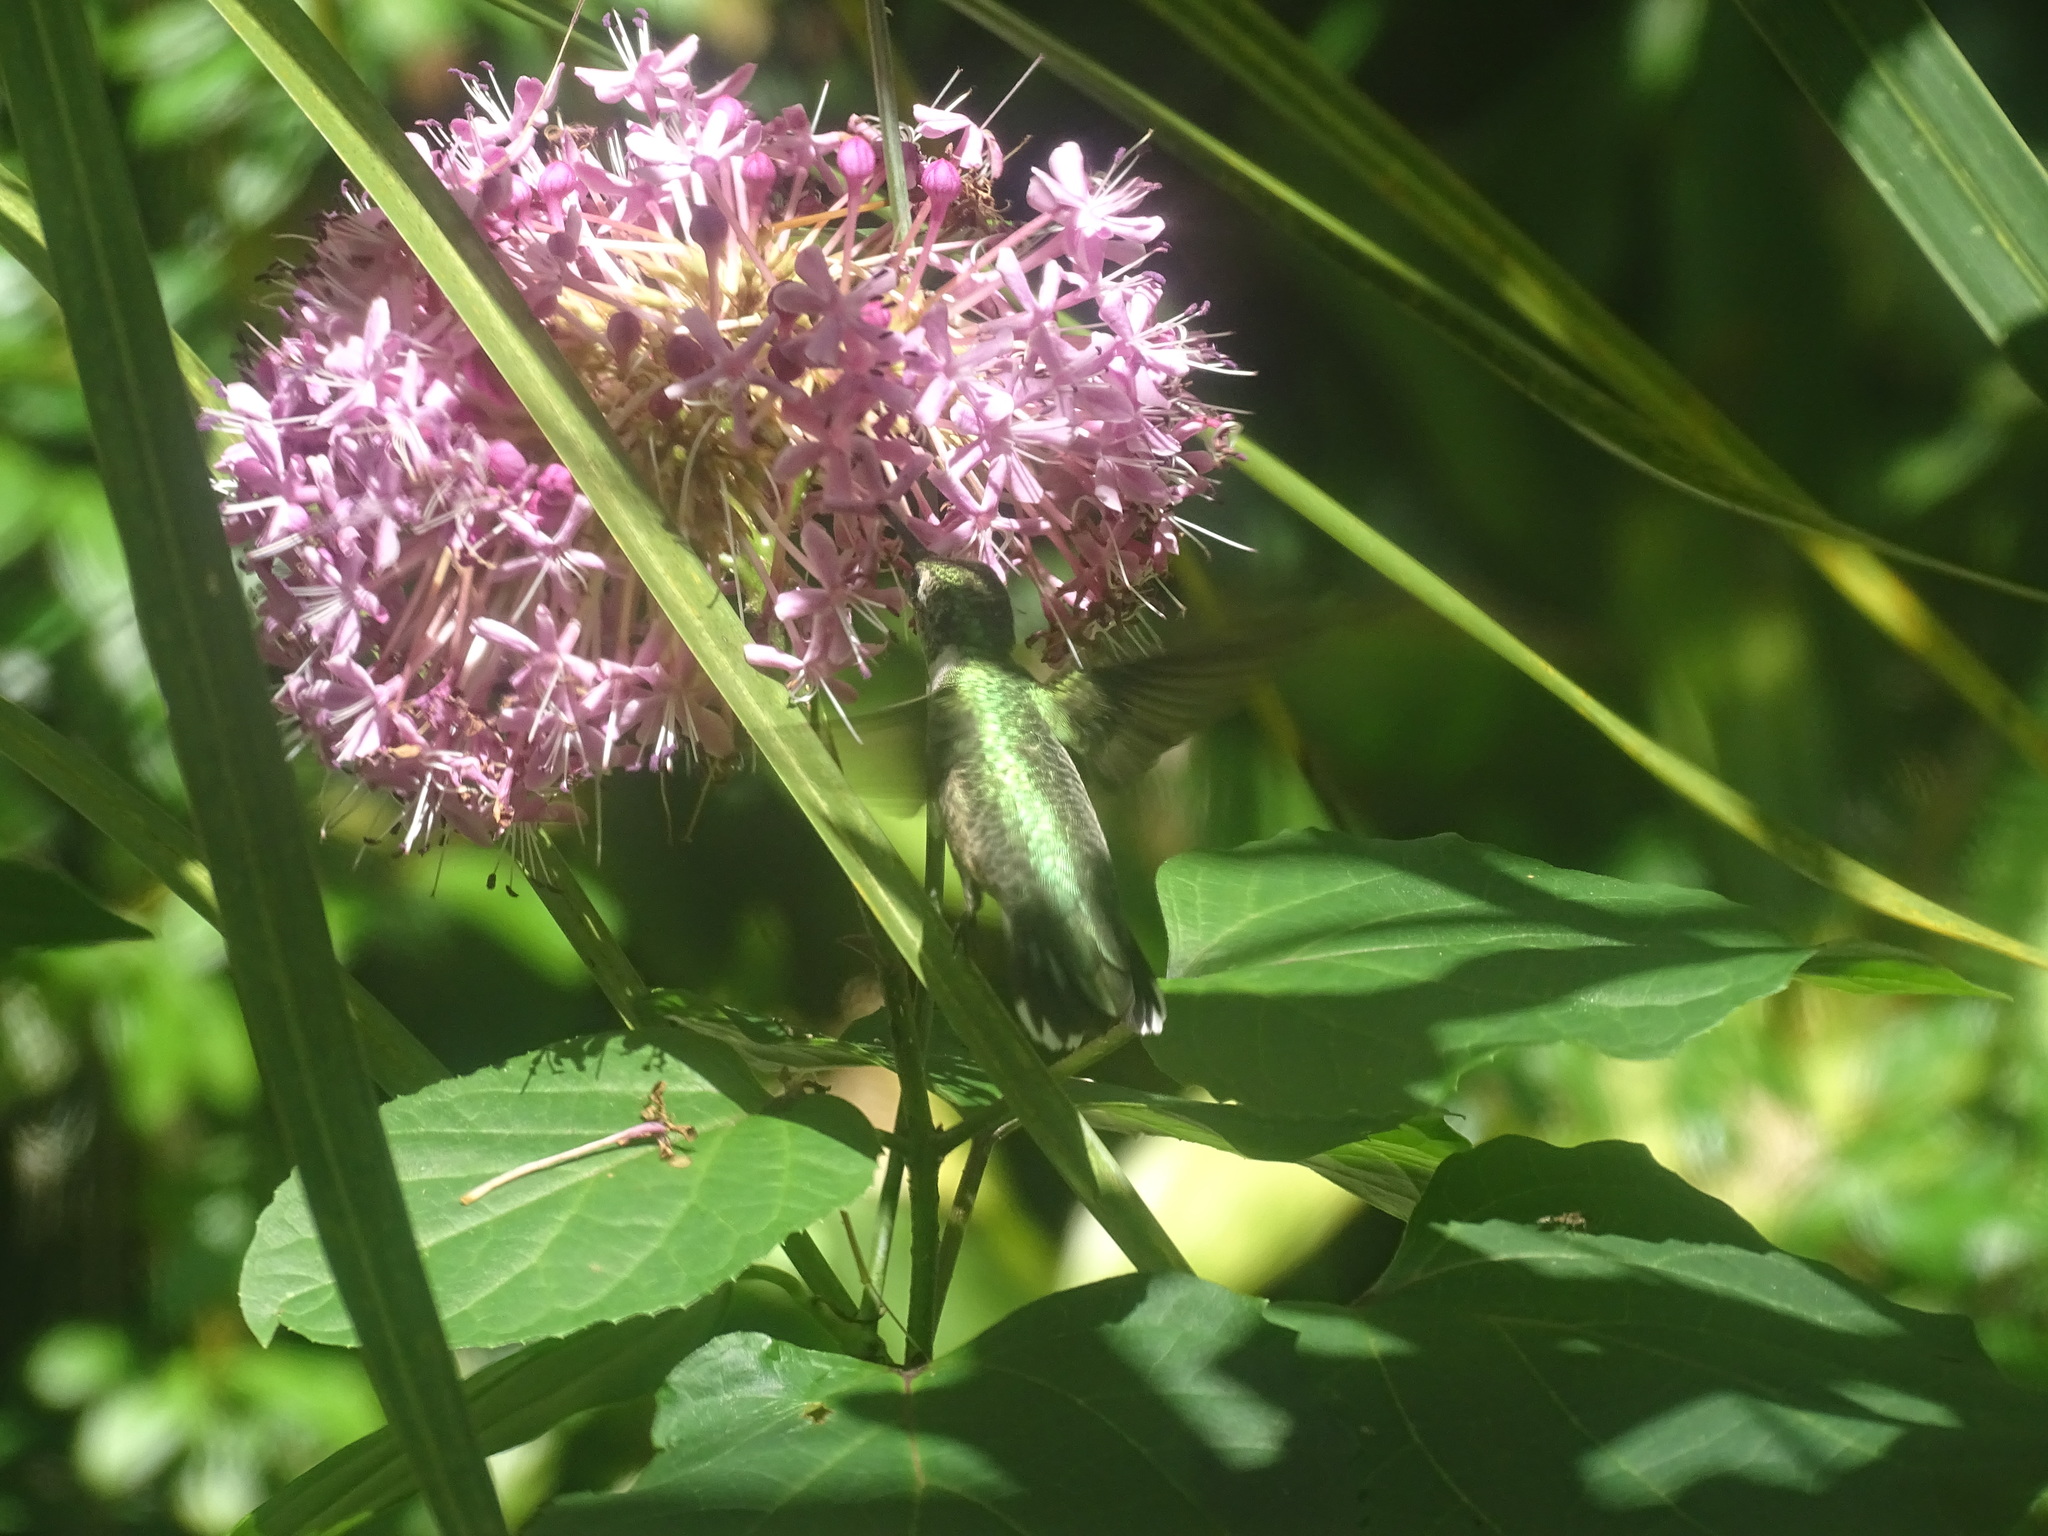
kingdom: Animalia
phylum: Chordata
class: Aves
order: Apodiformes
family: Trochilidae
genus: Archilochus
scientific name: Archilochus colubris
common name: Ruby-throated hummingbird
